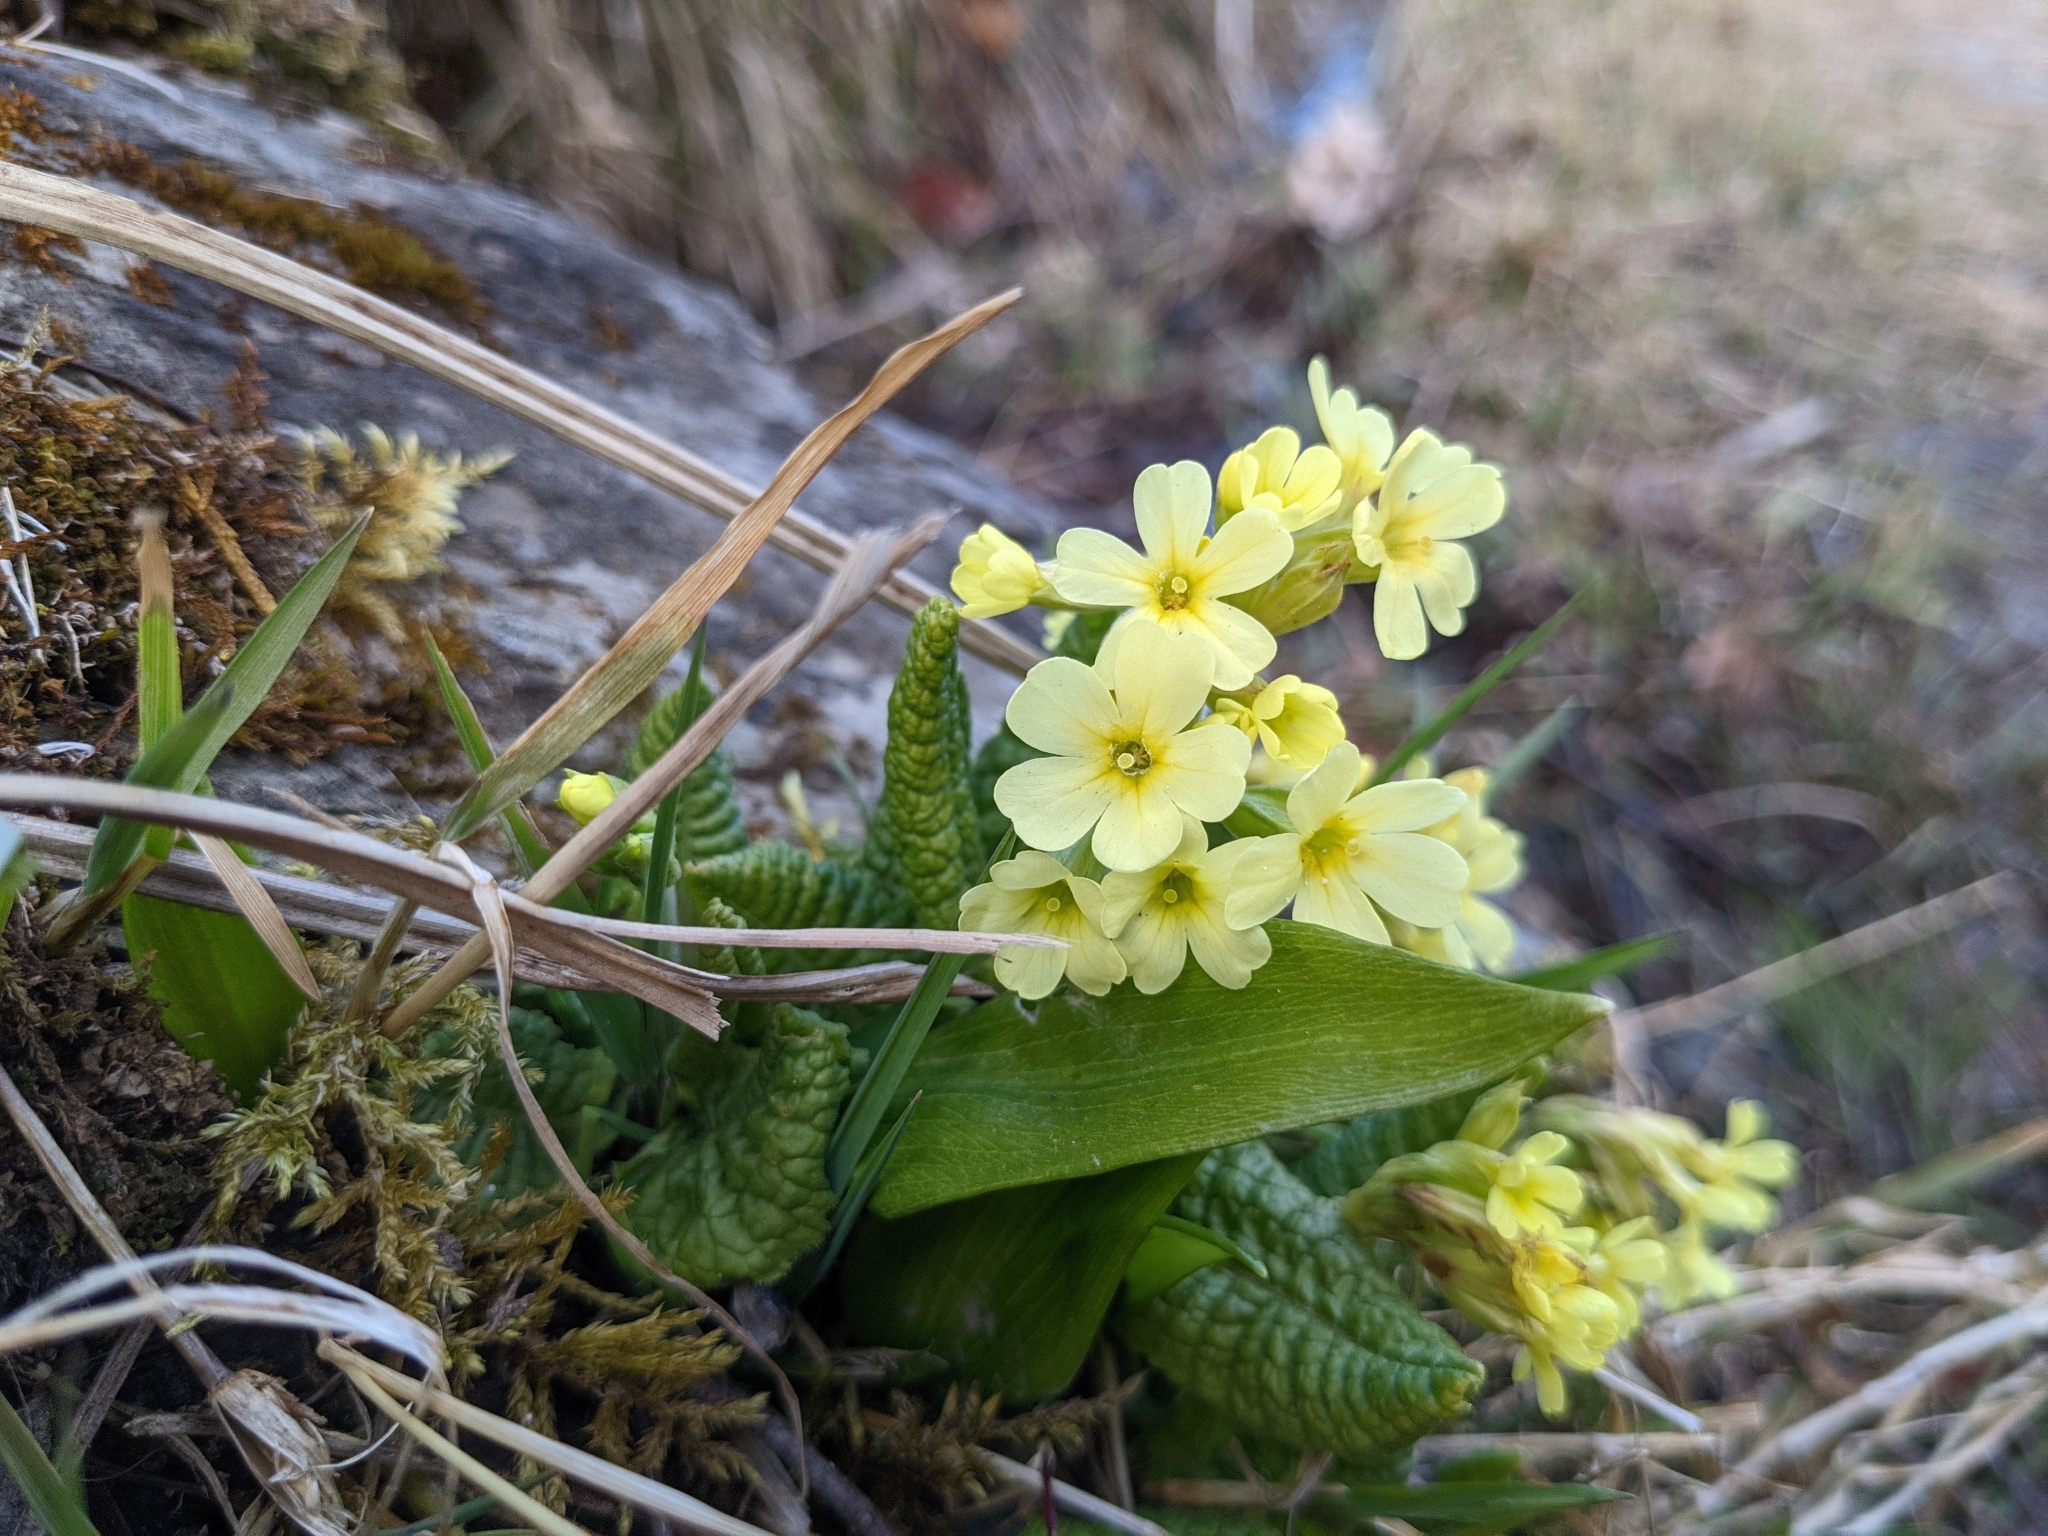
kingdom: Plantae
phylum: Tracheophyta
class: Magnoliopsida
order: Ericales
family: Primulaceae
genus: Primula
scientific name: Primula elatior
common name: Oxlip
